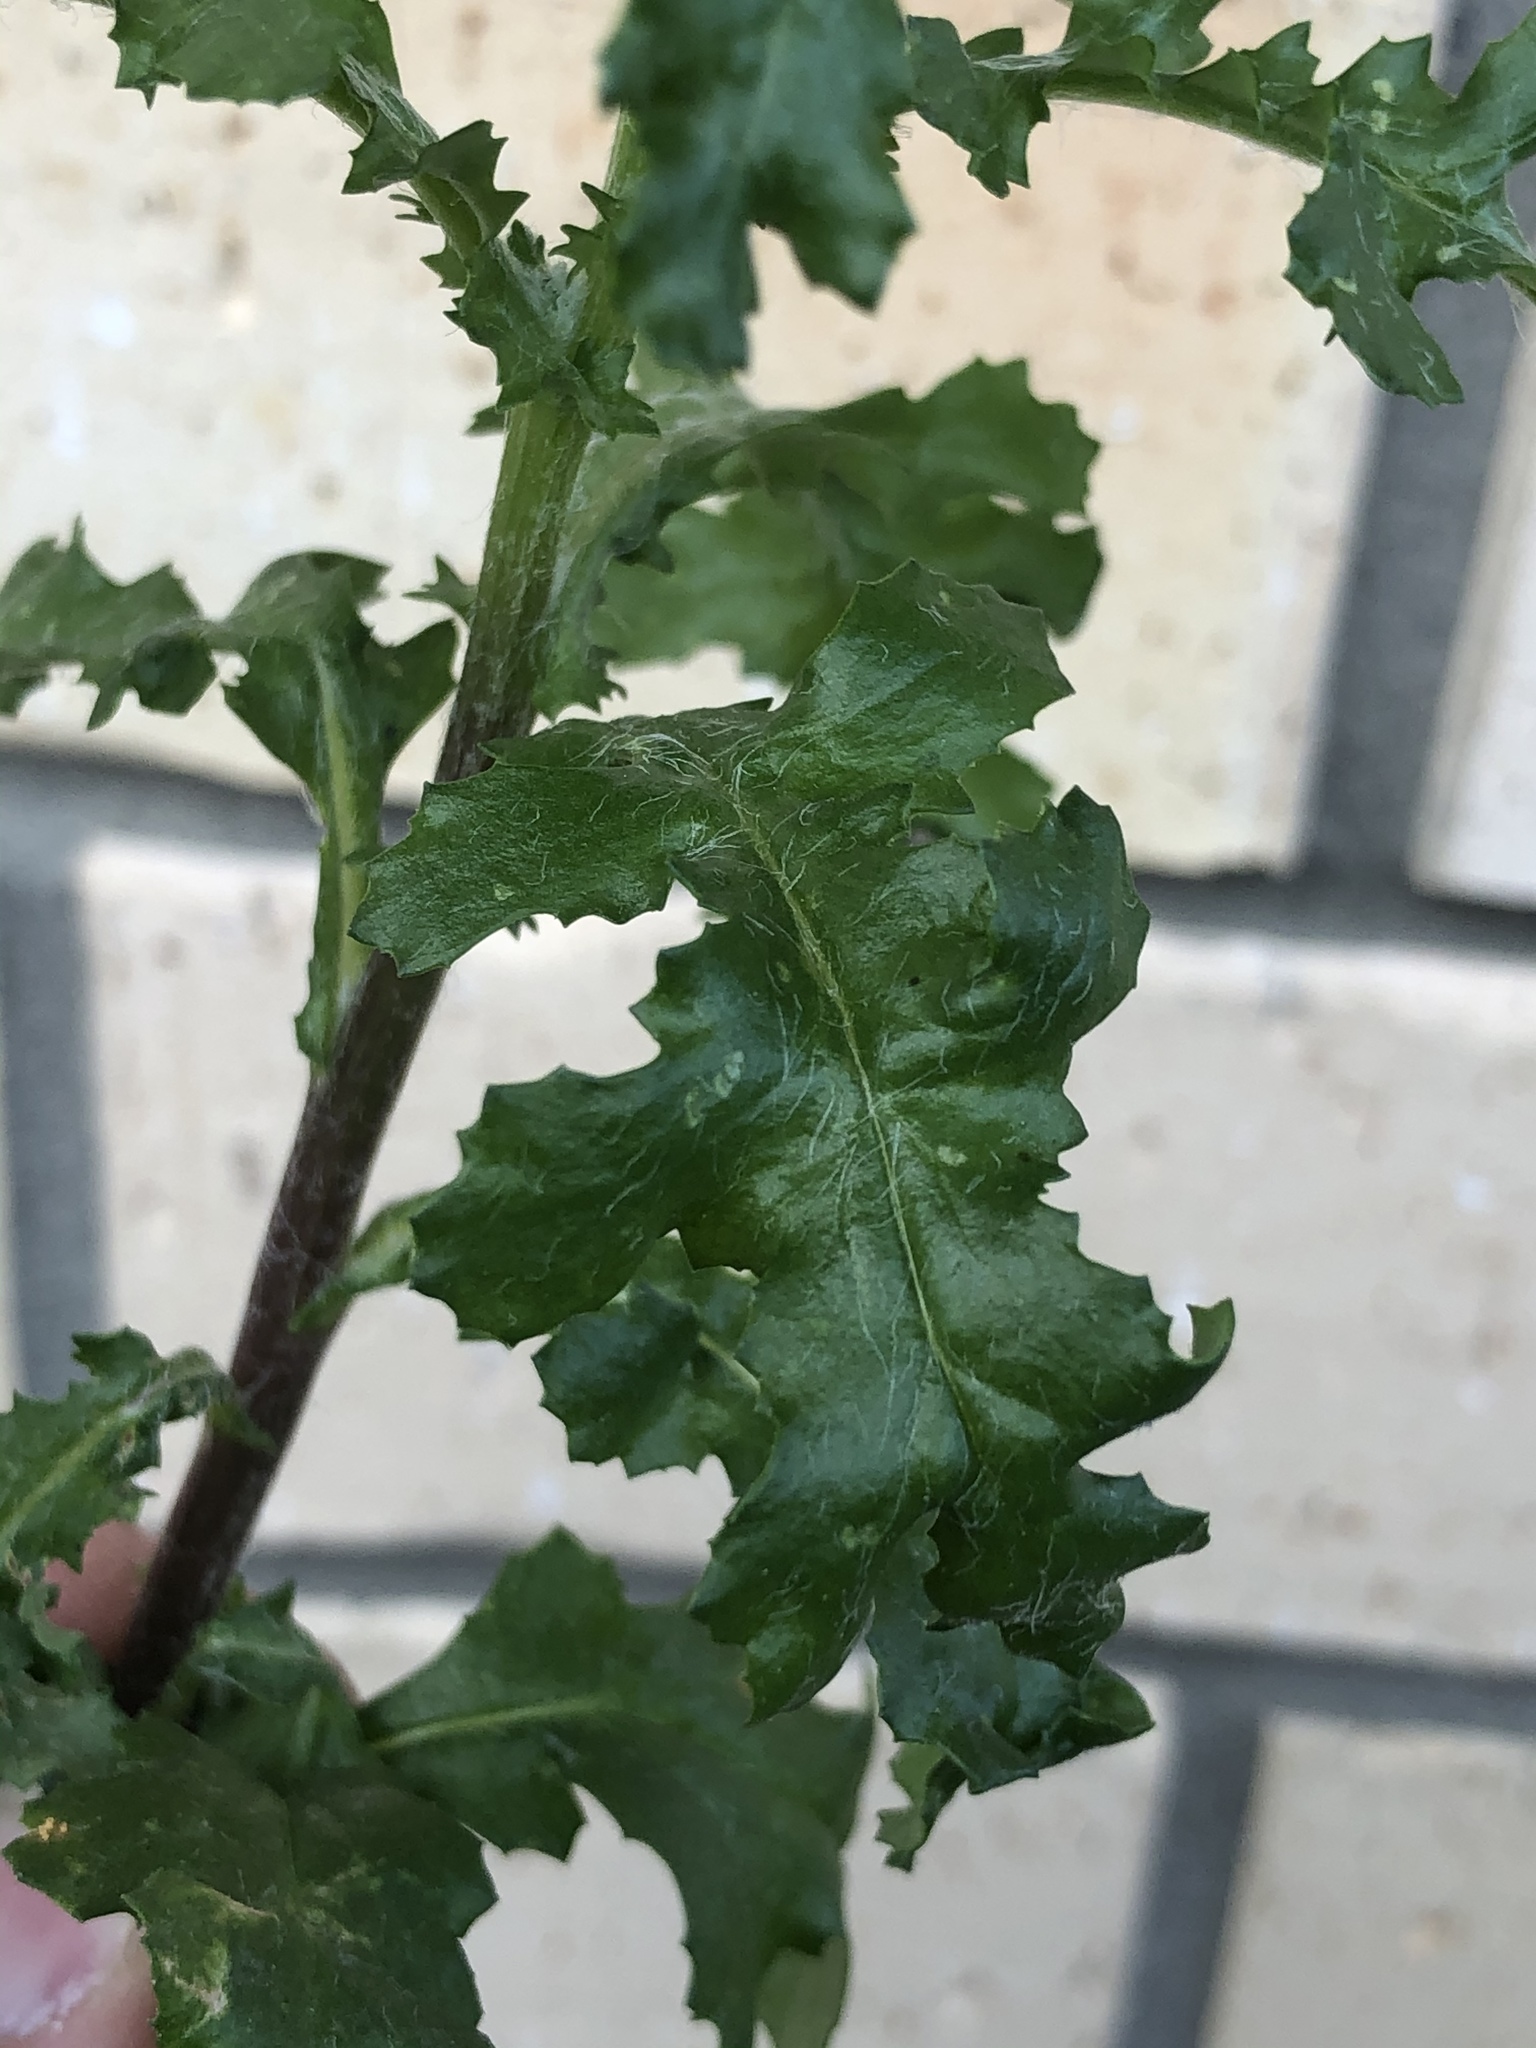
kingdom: Plantae
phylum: Tracheophyta
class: Magnoliopsida
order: Asterales
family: Asteraceae
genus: Senecio
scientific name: Senecio vulgaris
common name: Old-man-in-the-spring
